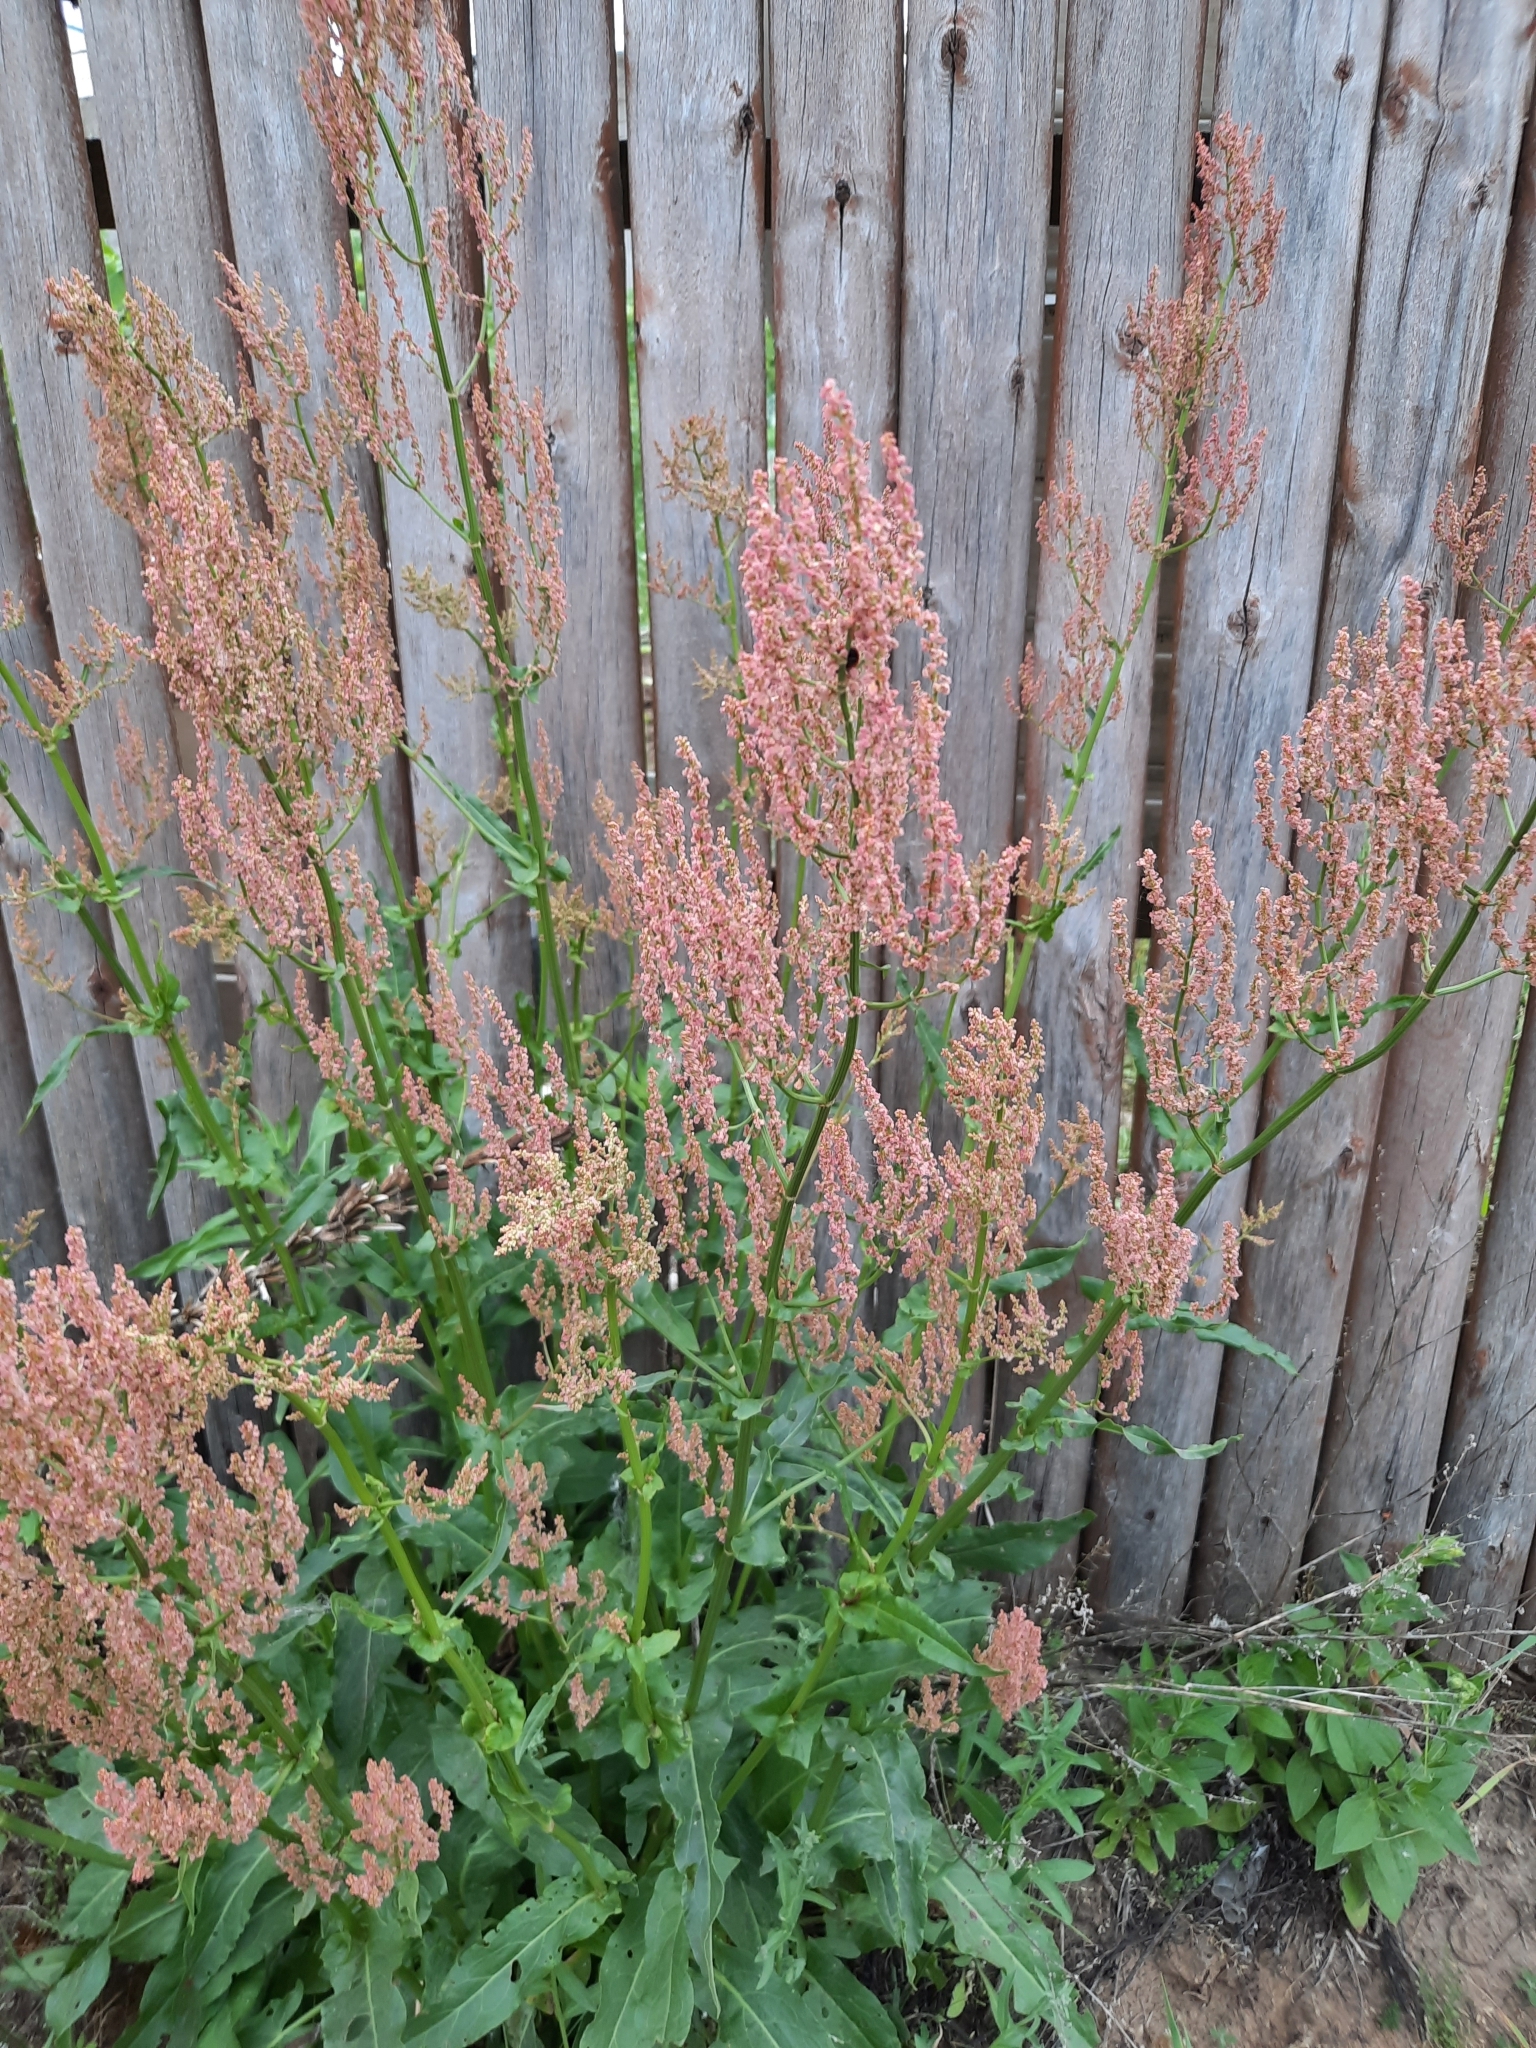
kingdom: Plantae
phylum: Tracheophyta
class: Magnoliopsida
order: Caryophyllales
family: Polygonaceae
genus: Rumex
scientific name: Rumex thyrsiflorus
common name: Garden sorrel
